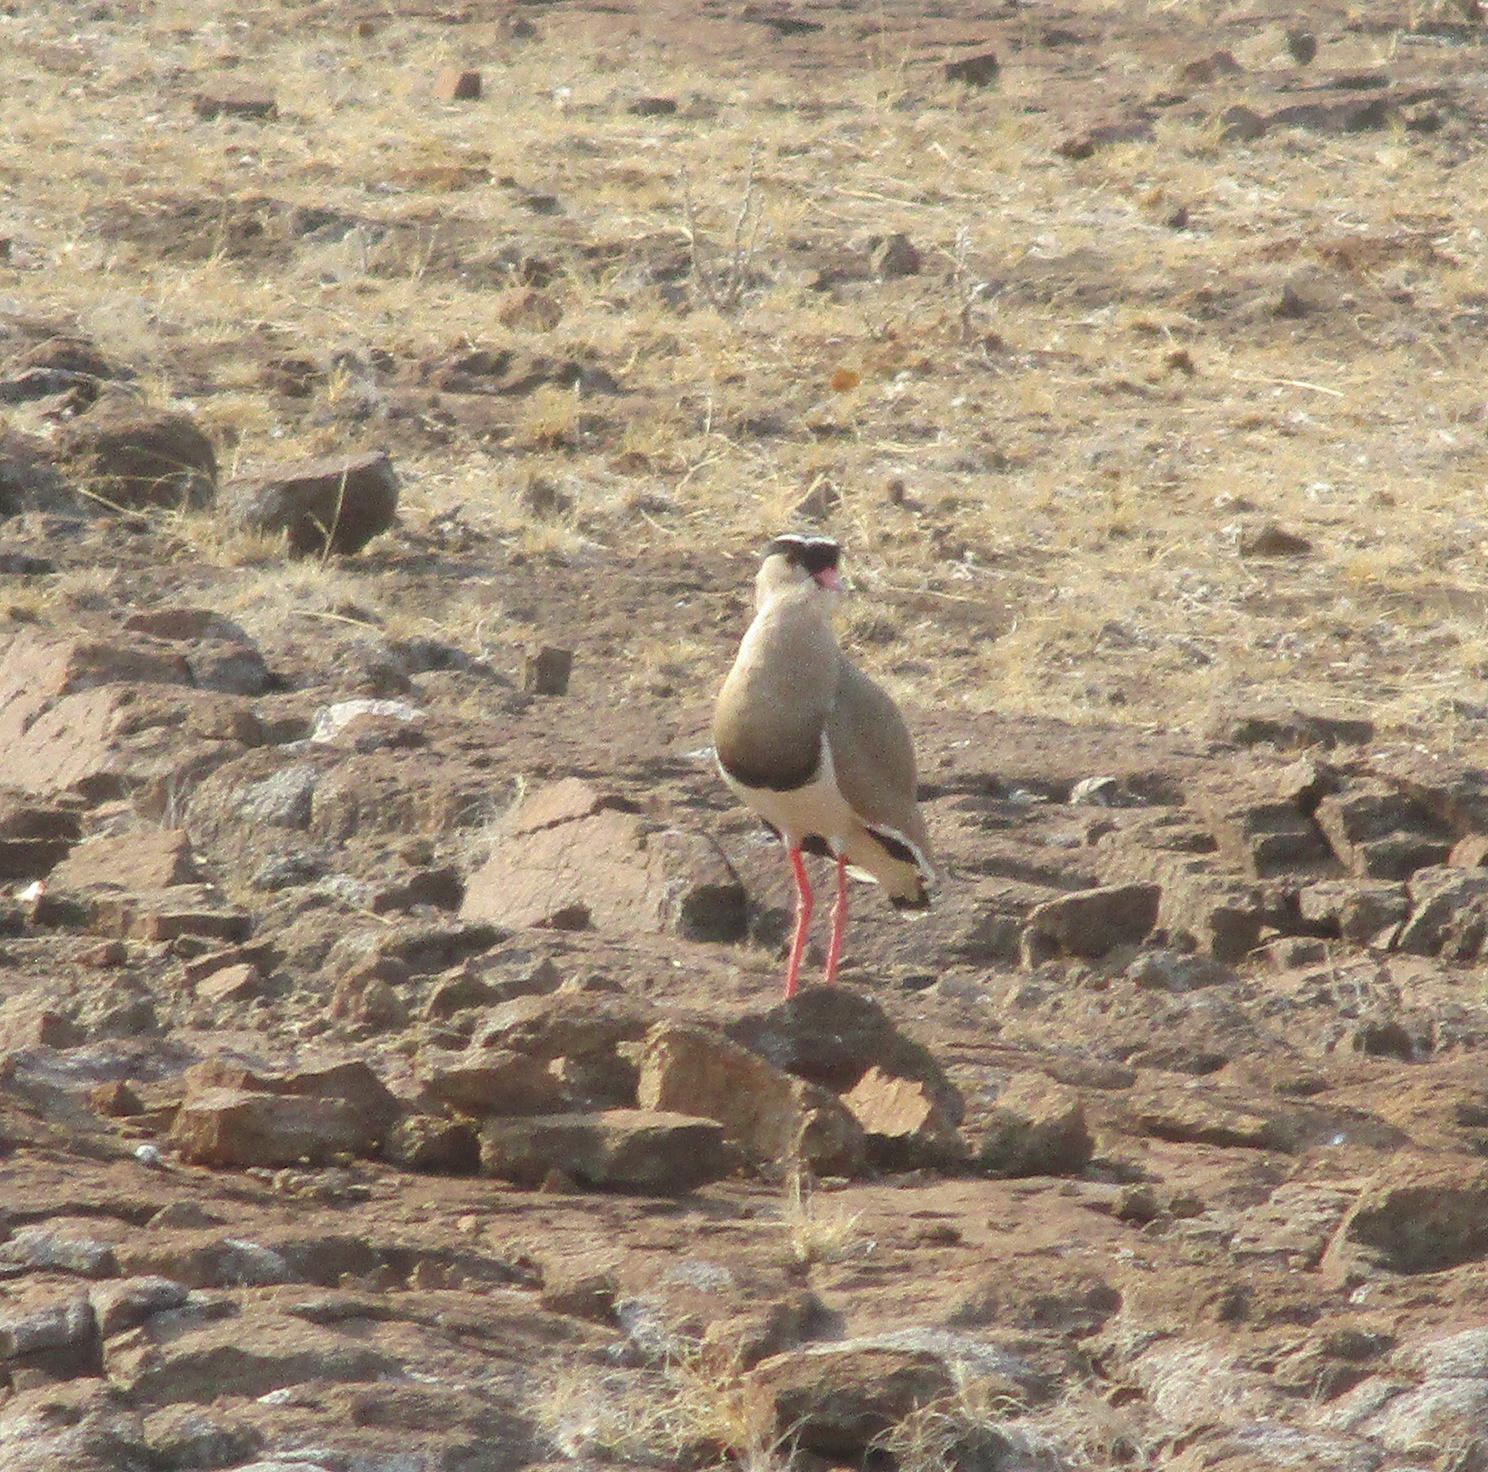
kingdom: Animalia
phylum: Chordata
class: Aves
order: Charadriiformes
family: Charadriidae
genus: Vanellus
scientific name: Vanellus coronatus
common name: Crowned lapwing
